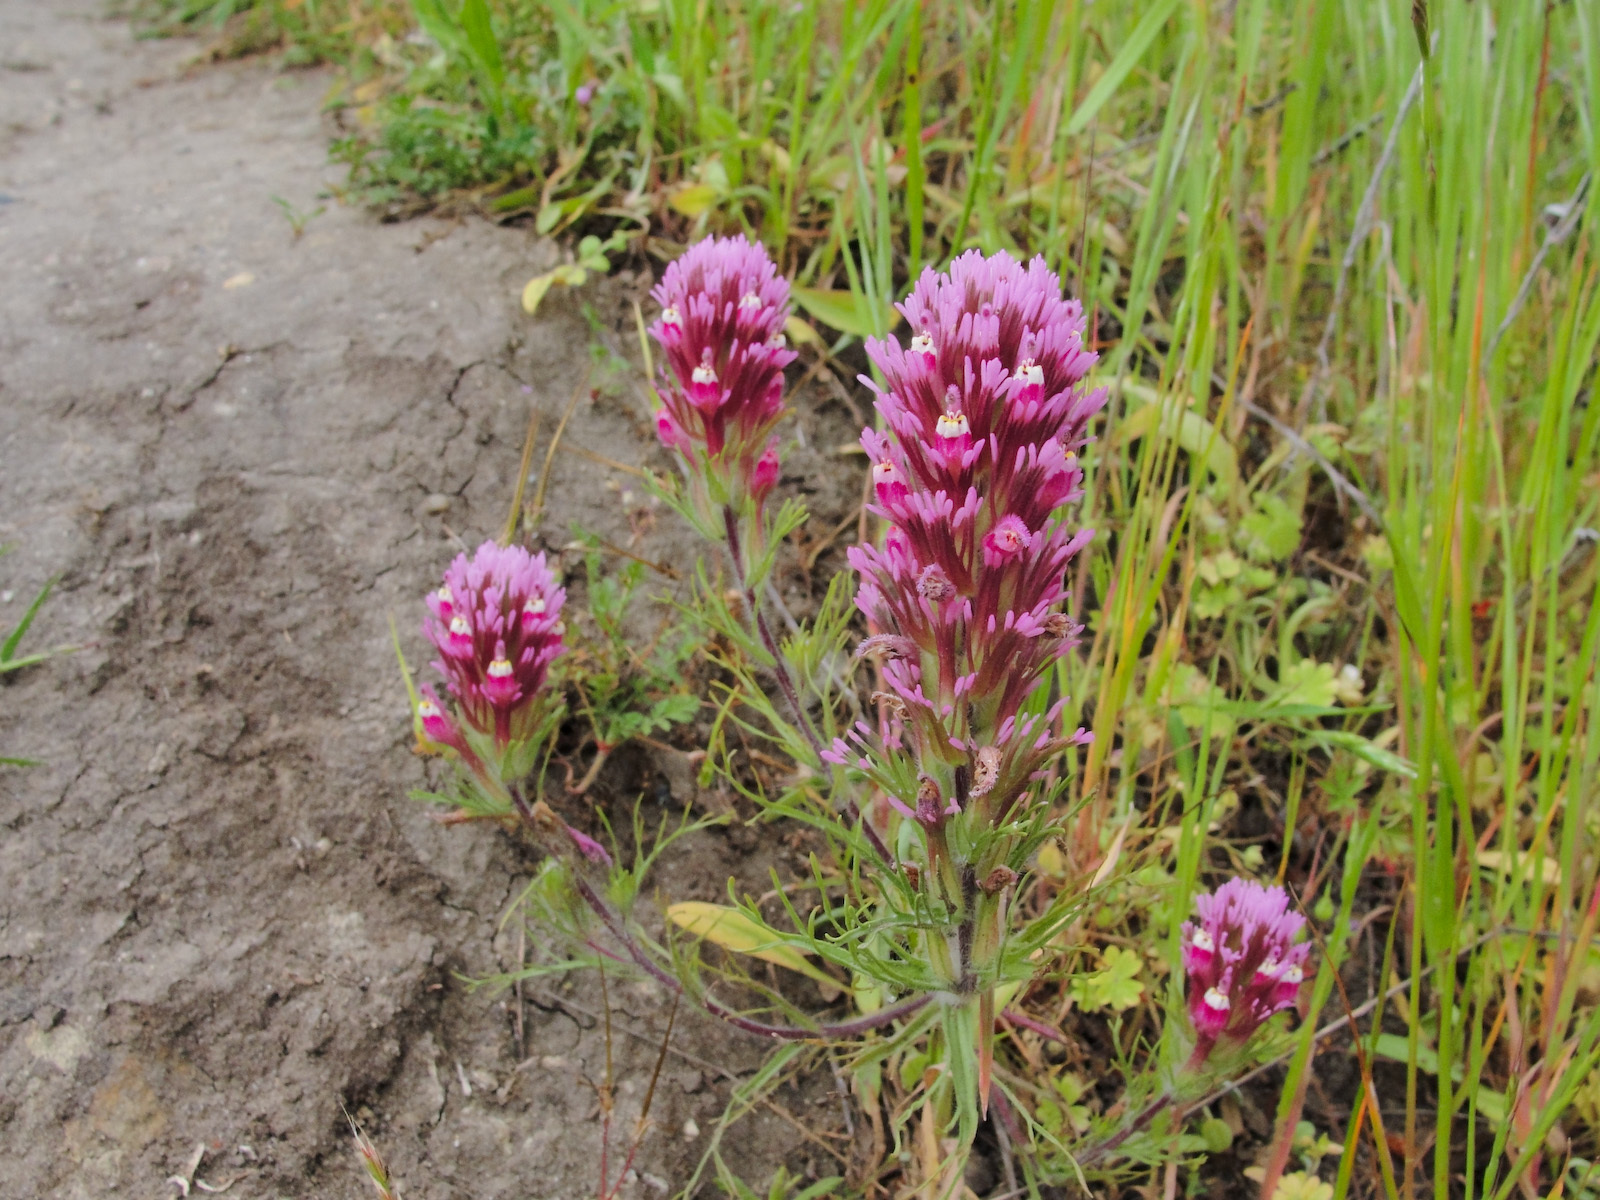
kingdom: Plantae
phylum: Tracheophyta
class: Magnoliopsida
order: Lamiales
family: Orobanchaceae
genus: Castilleja
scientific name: Castilleja densiflora
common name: Dense-flower indian paintbrush
